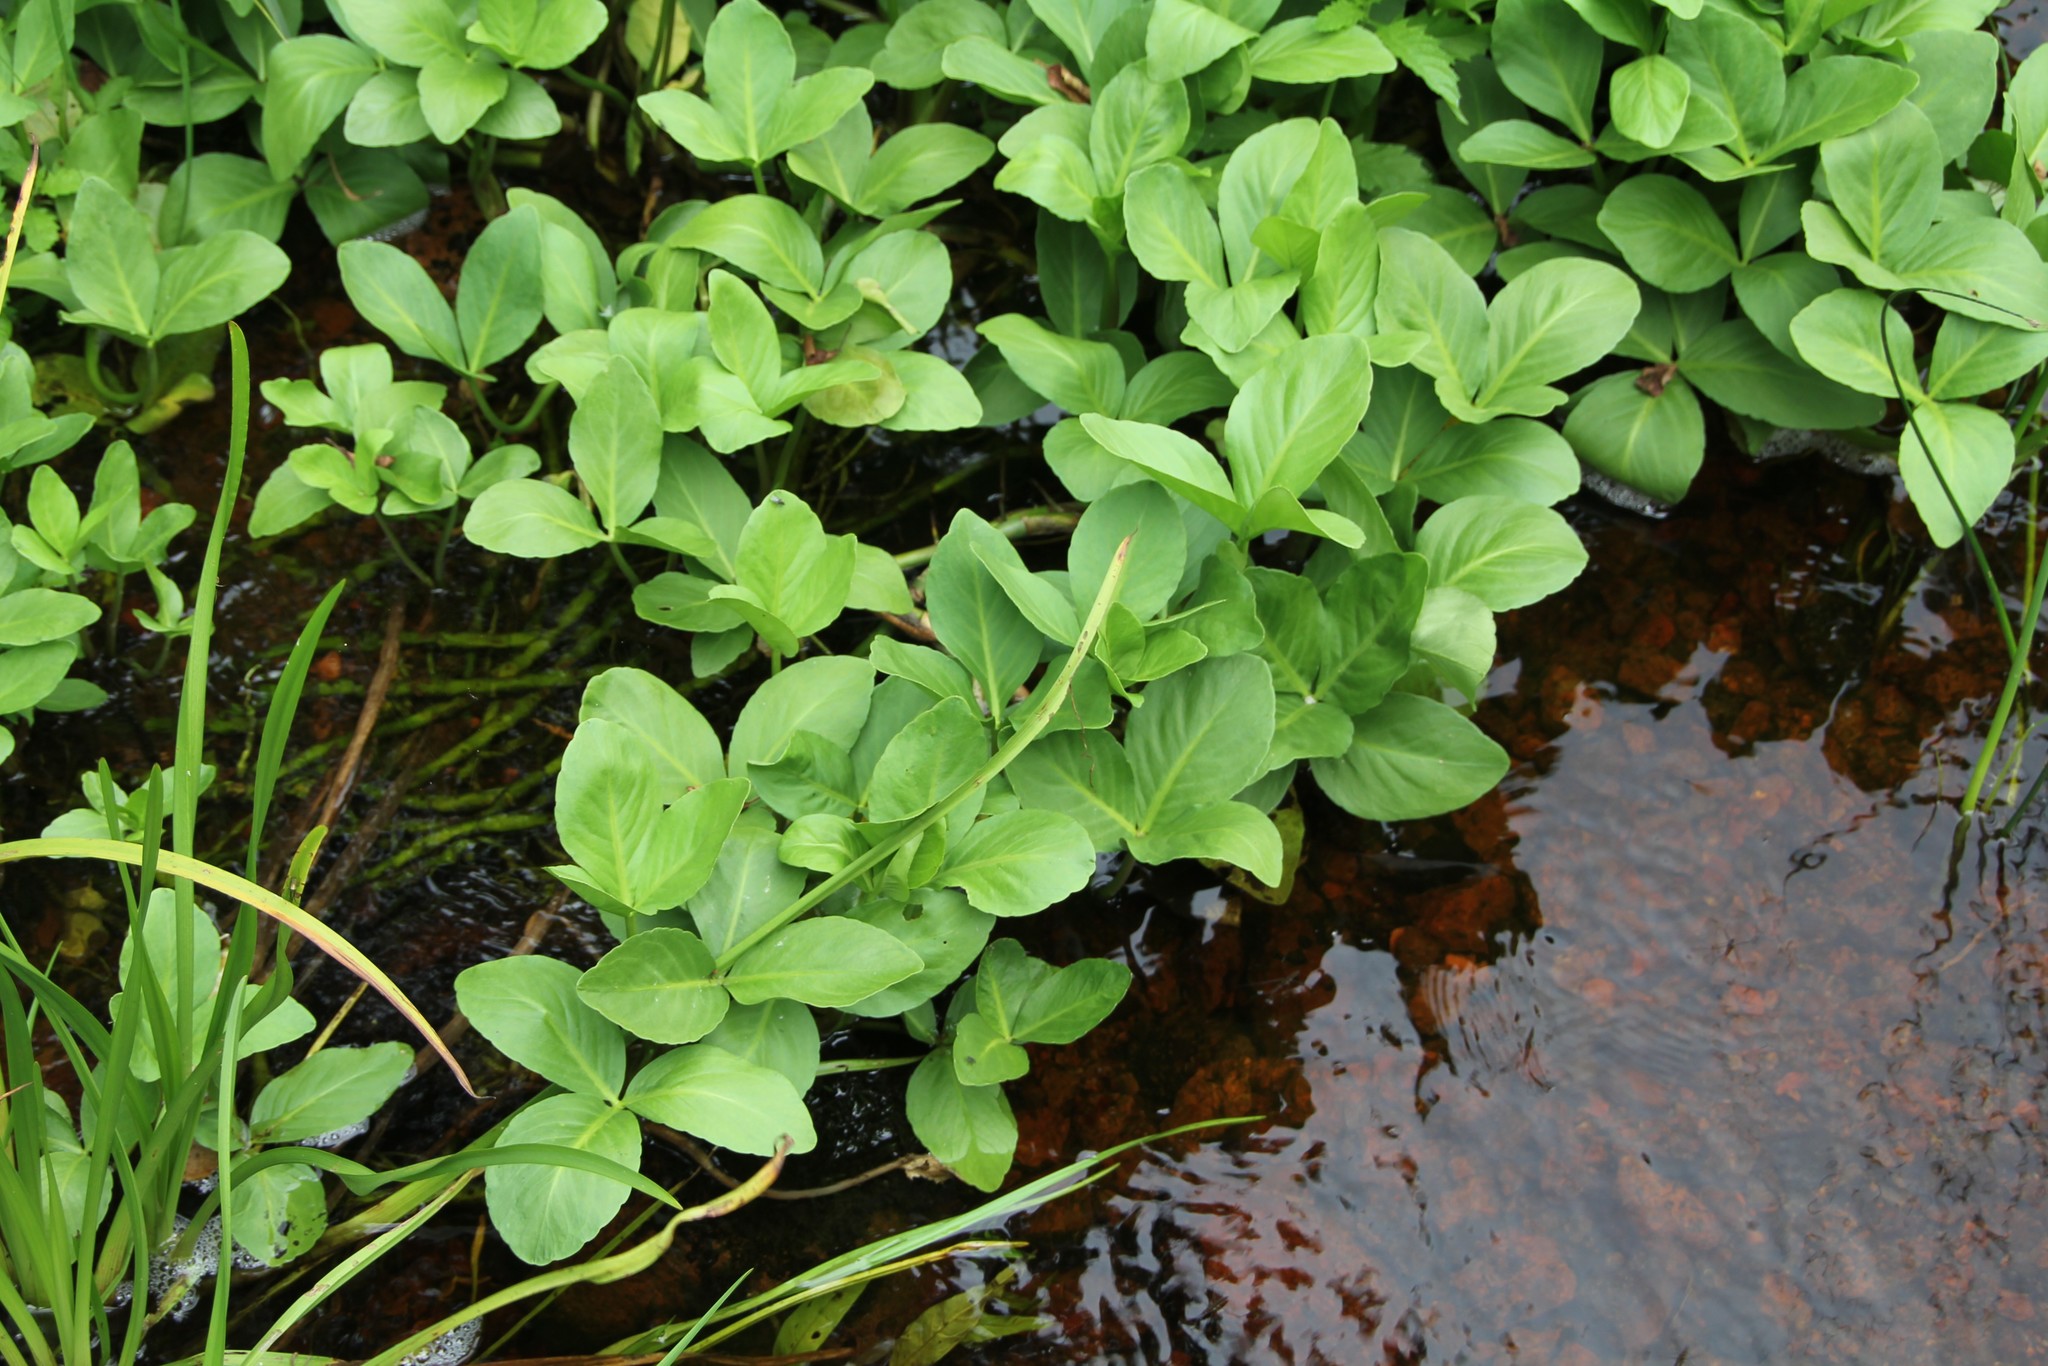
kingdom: Plantae
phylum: Tracheophyta
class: Magnoliopsida
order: Asterales
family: Menyanthaceae
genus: Menyanthes
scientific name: Menyanthes trifoliata
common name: Bogbean
